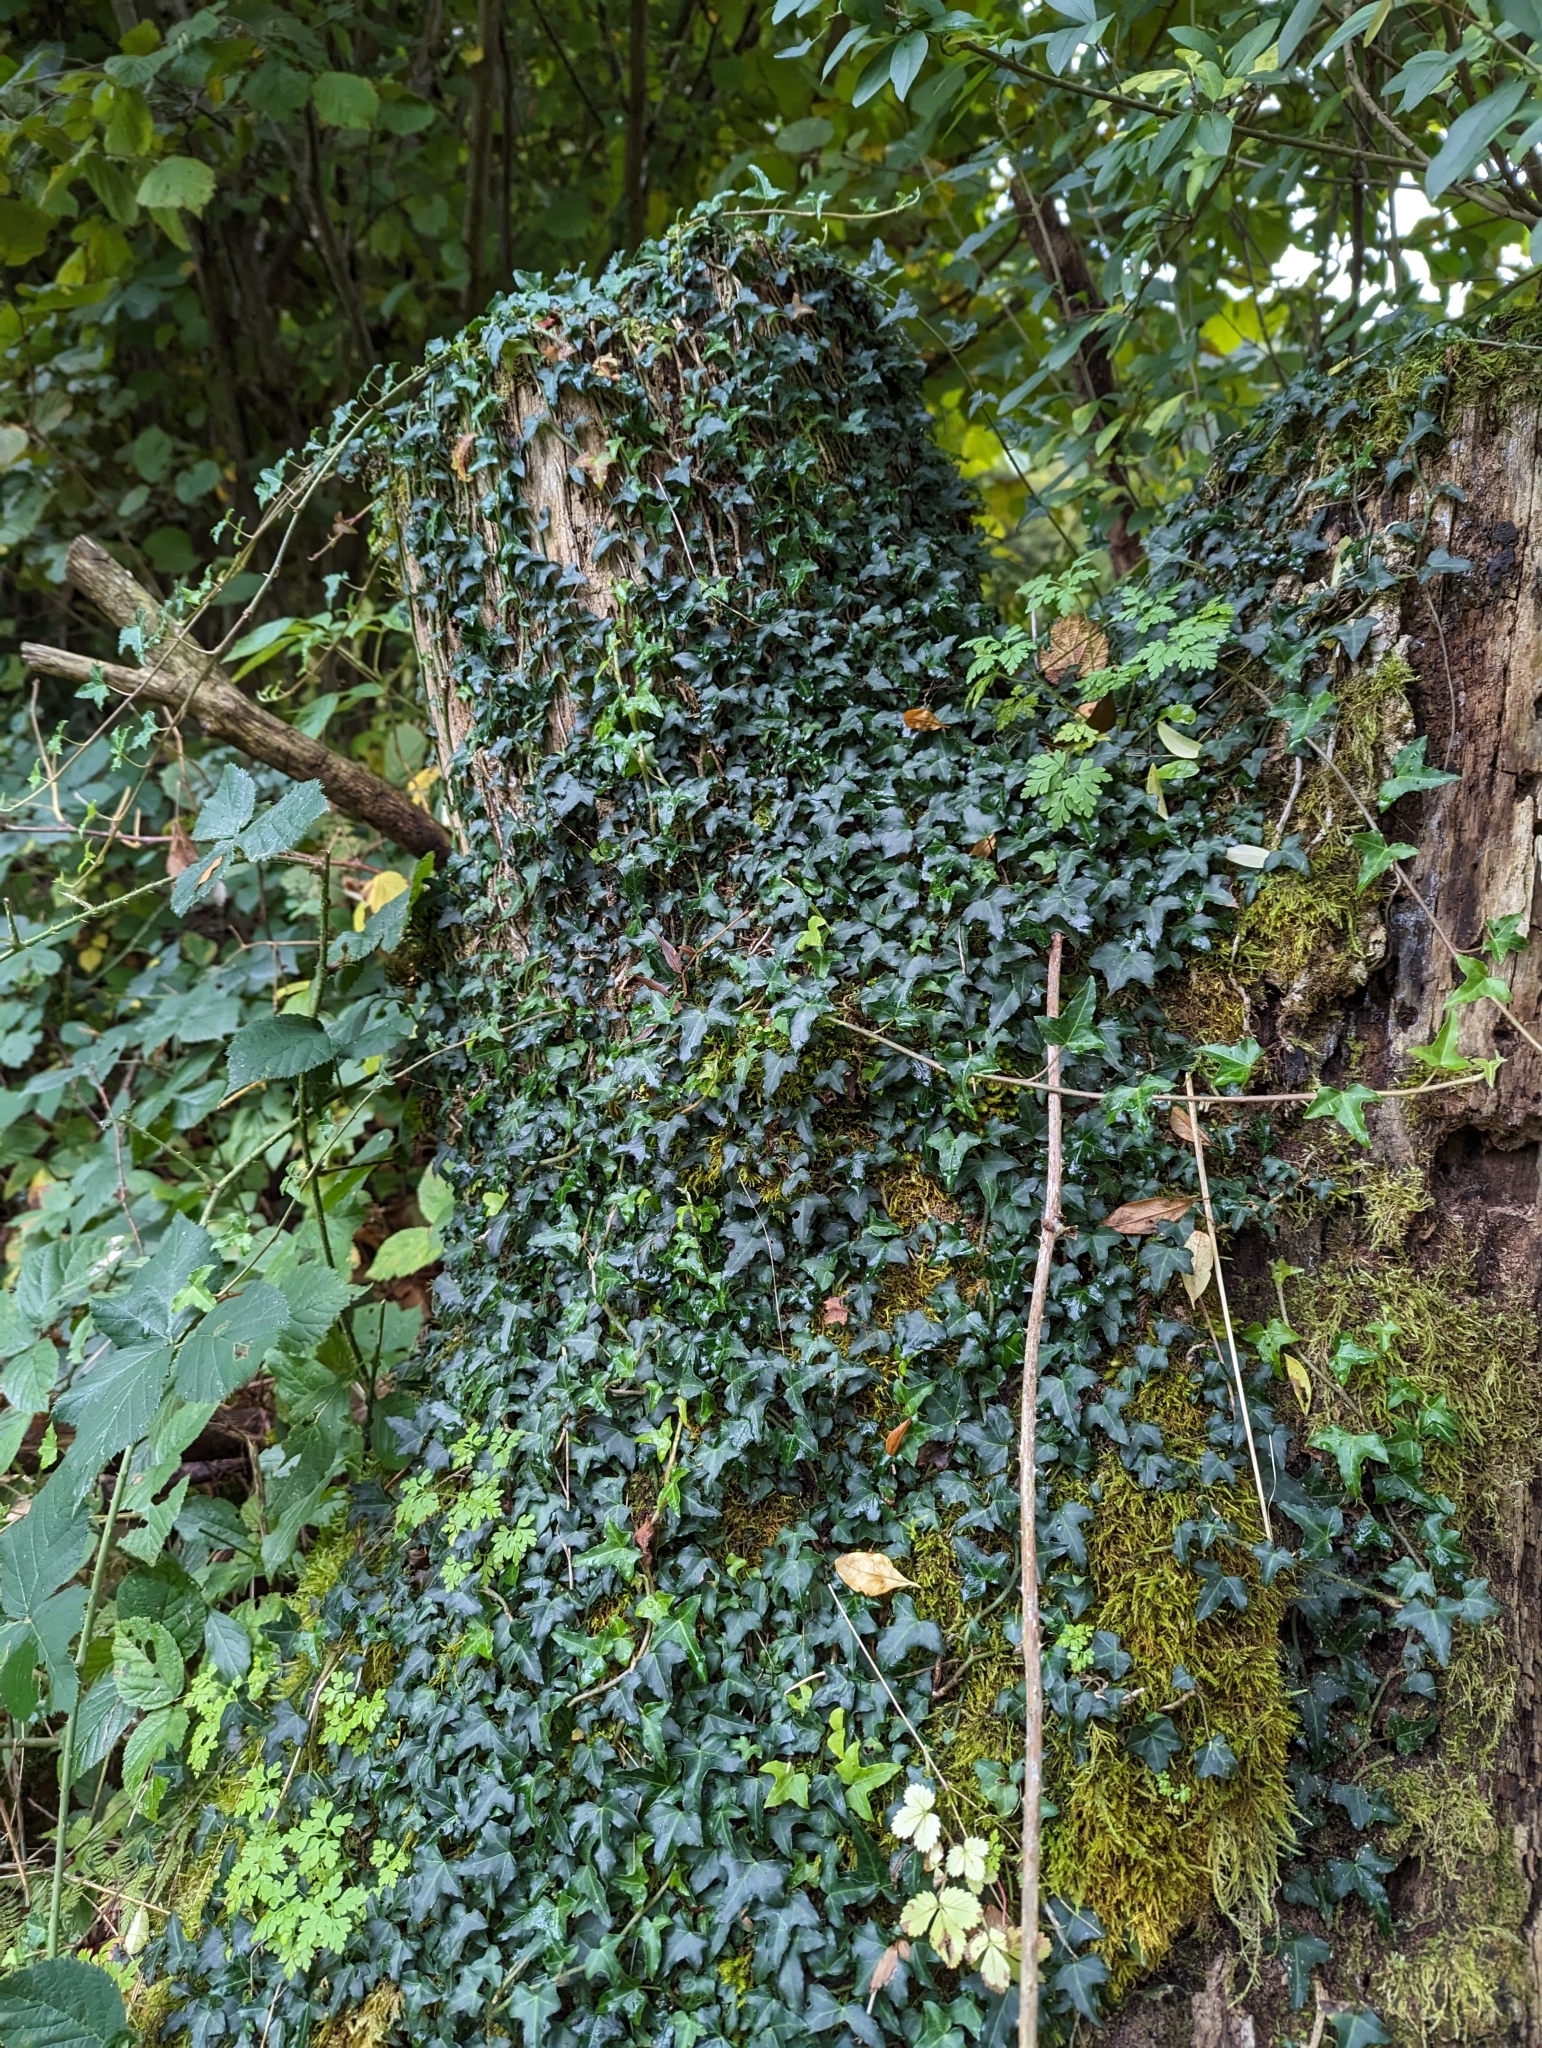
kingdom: Plantae
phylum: Tracheophyta
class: Magnoliopsida
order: Apiales
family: Araliaceae
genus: Hedera
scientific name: Hedera helix
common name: Ivy
